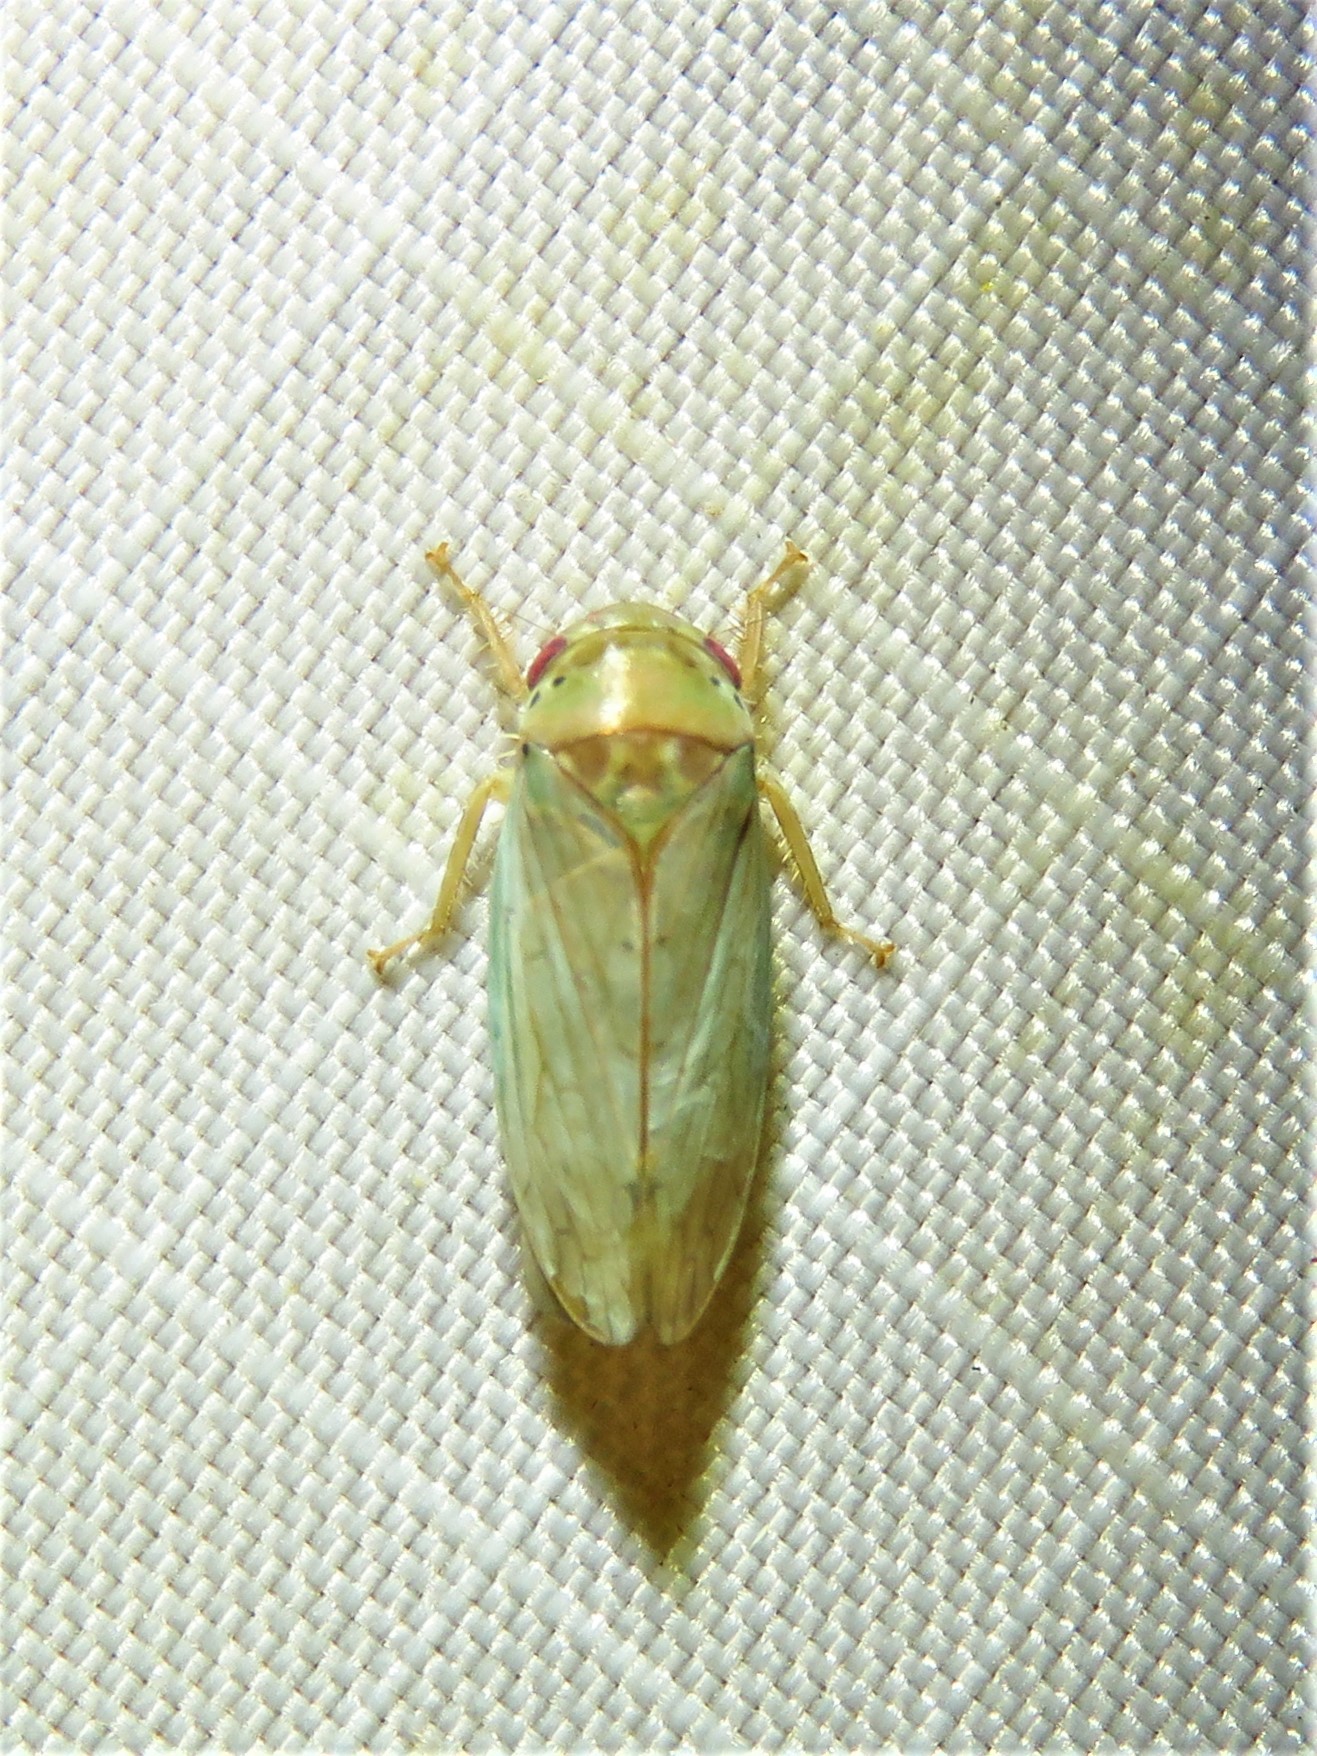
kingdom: Animalia
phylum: Arthropoda
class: Insecta
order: Hemiptera
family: Cicadellidae
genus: Polana
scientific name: Polana quadrinotata
